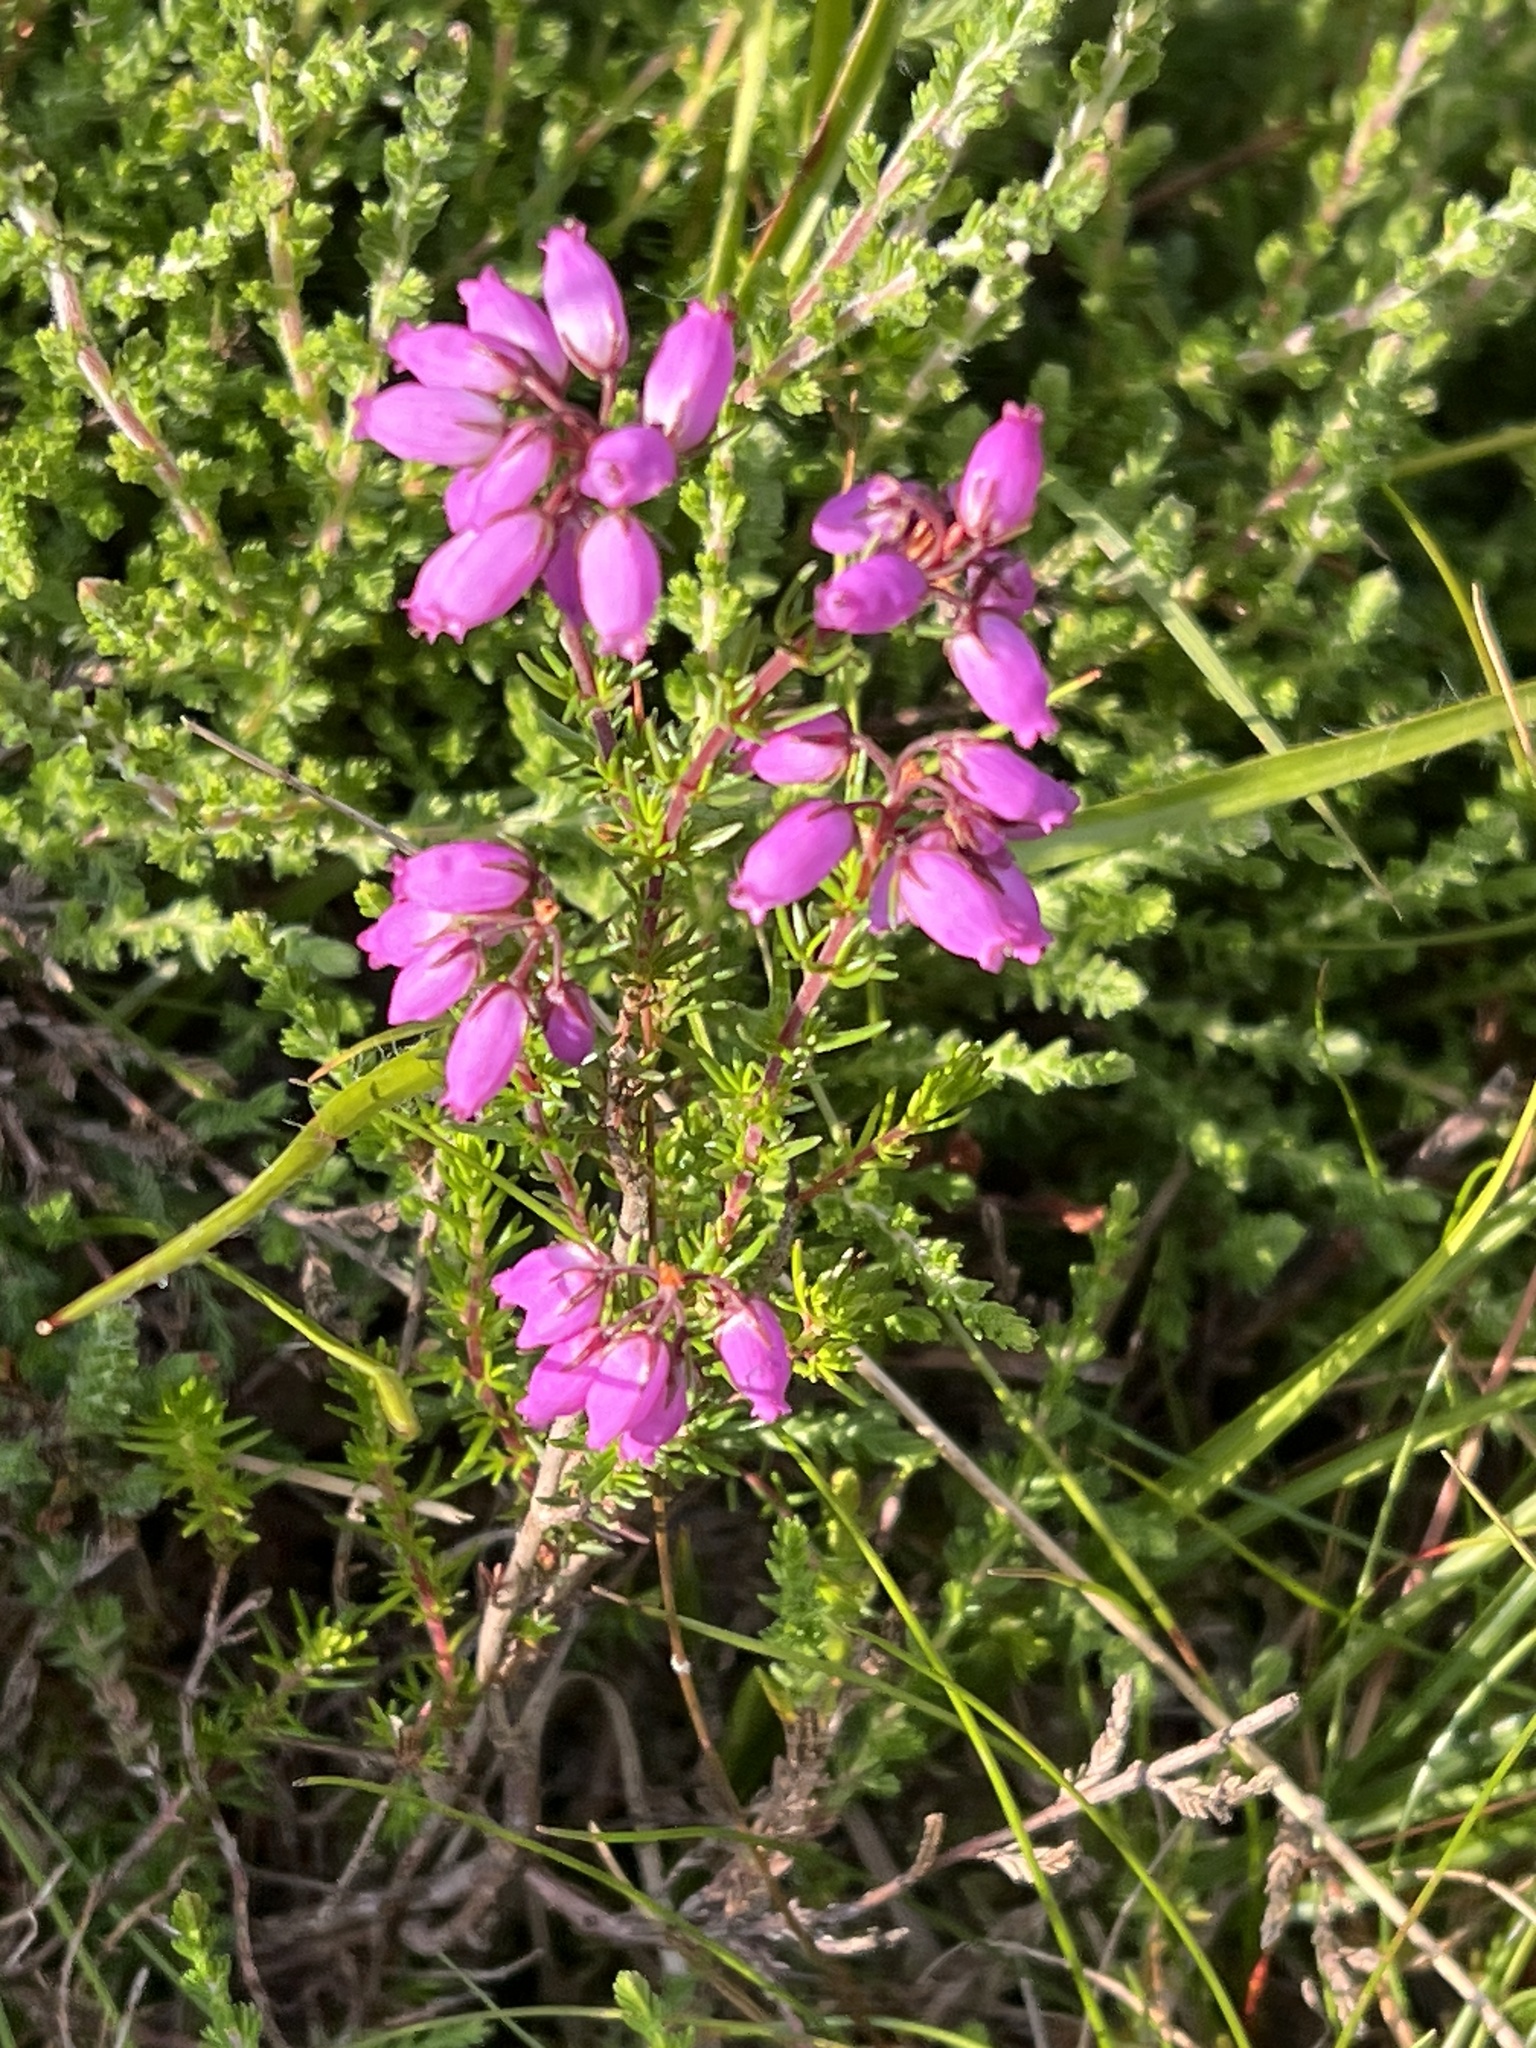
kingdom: Plantae
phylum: Tracheophyta
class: Magnoliopsida
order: Ericales
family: Ericaceae
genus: Erica
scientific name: Erica cinerea
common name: Bell heather
